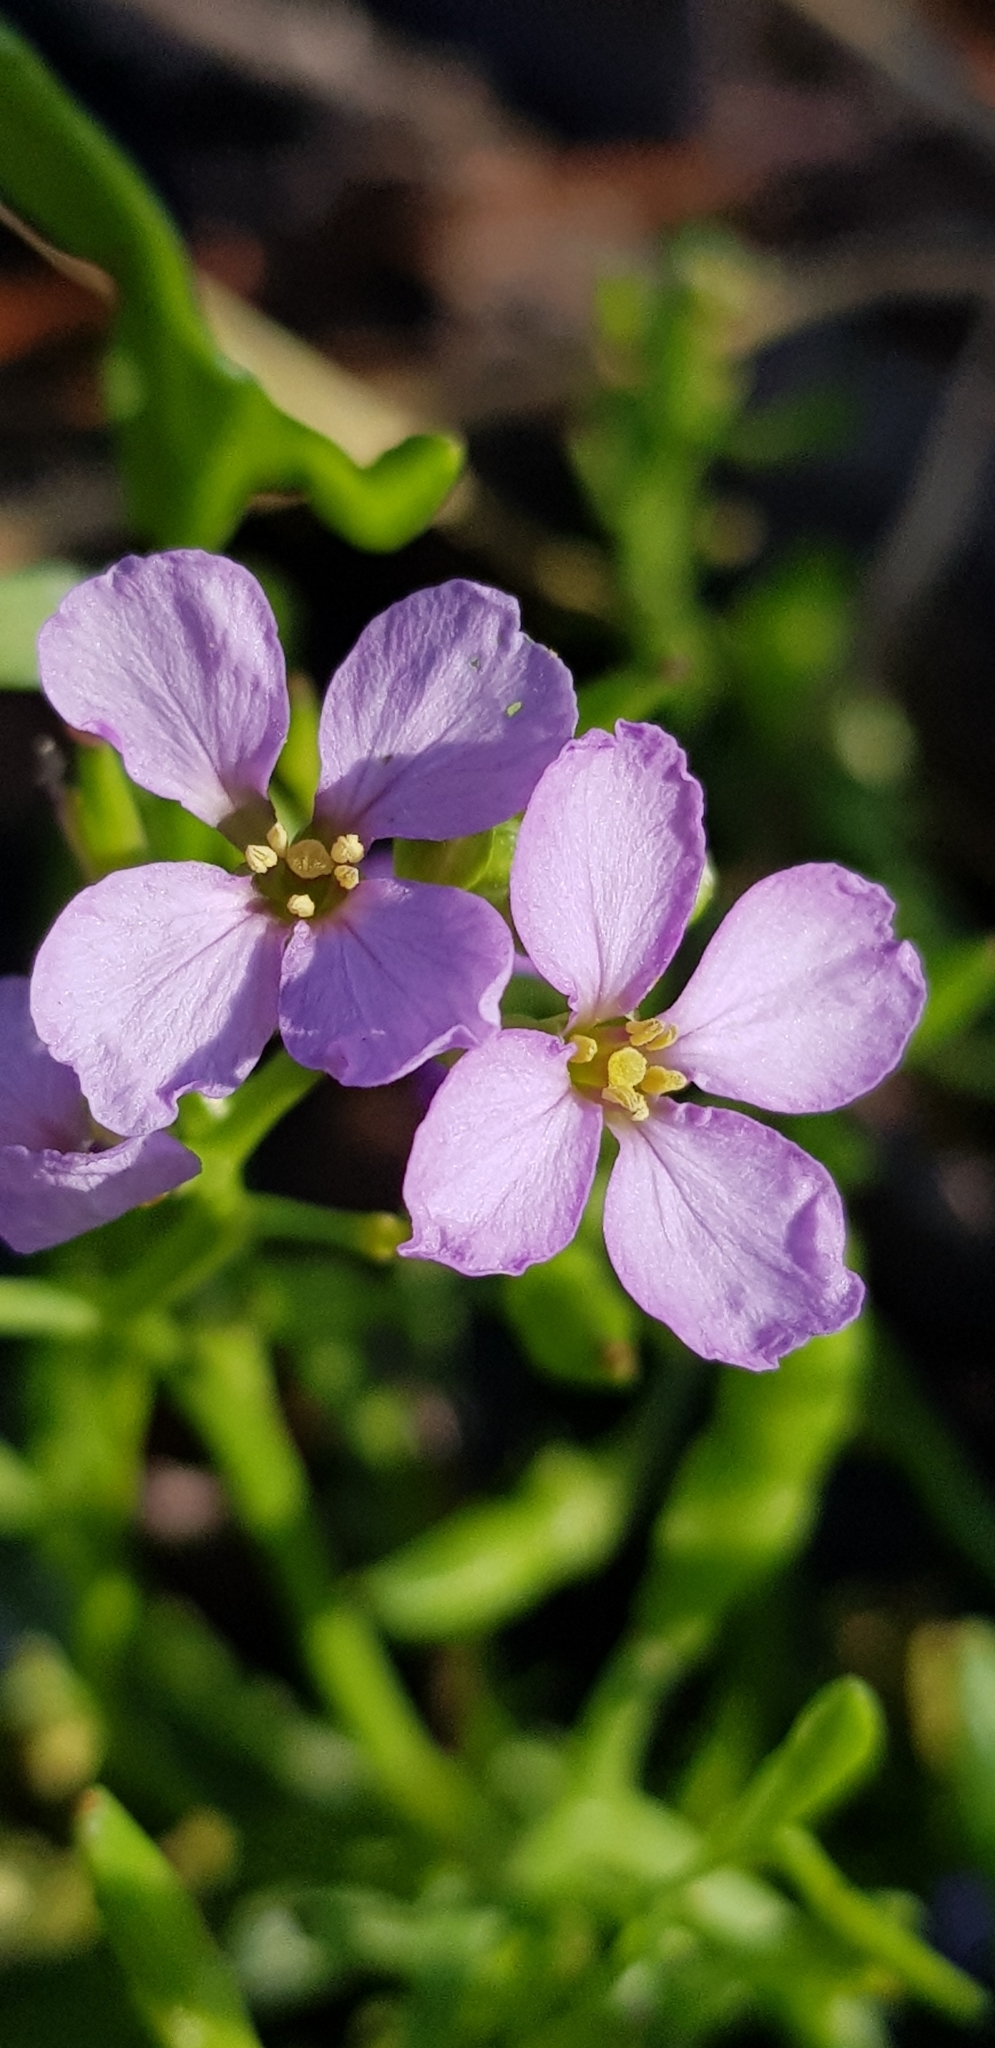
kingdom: Plantae
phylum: Tracheophyta
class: Magnoliopsida
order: Brassicales
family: Brassicaceae
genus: Cakile
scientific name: Cakile maritima
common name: Sea rocket
